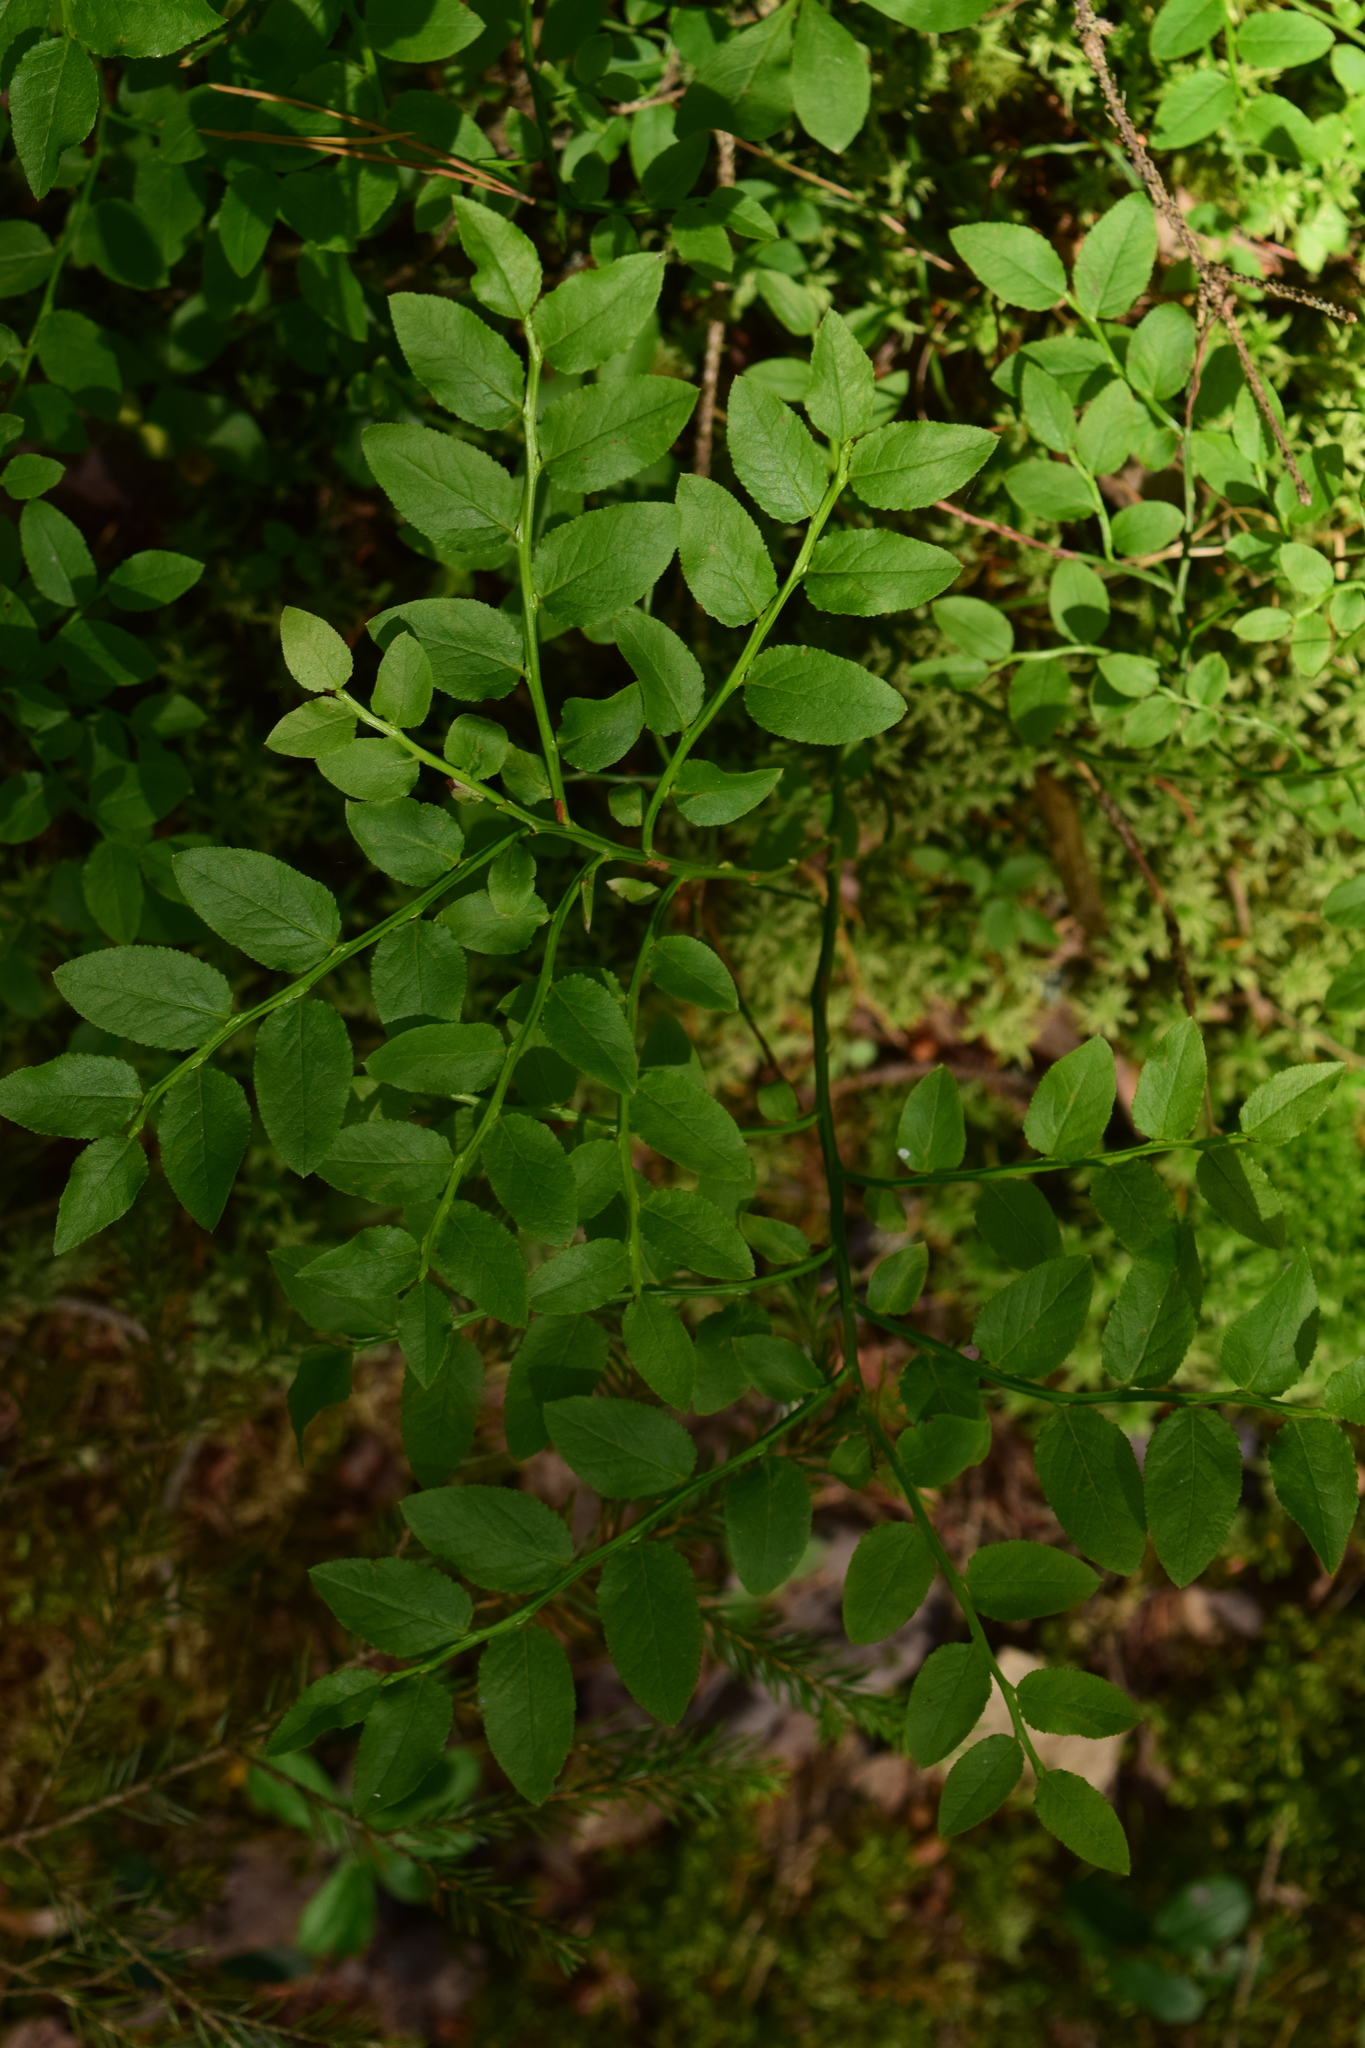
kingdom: Plantae
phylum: Tracheophyta
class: Magnoliopsida
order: Ericales
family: Ericaceae
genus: Vaccinium
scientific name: Vaccinium myrtillus
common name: Bilberry
